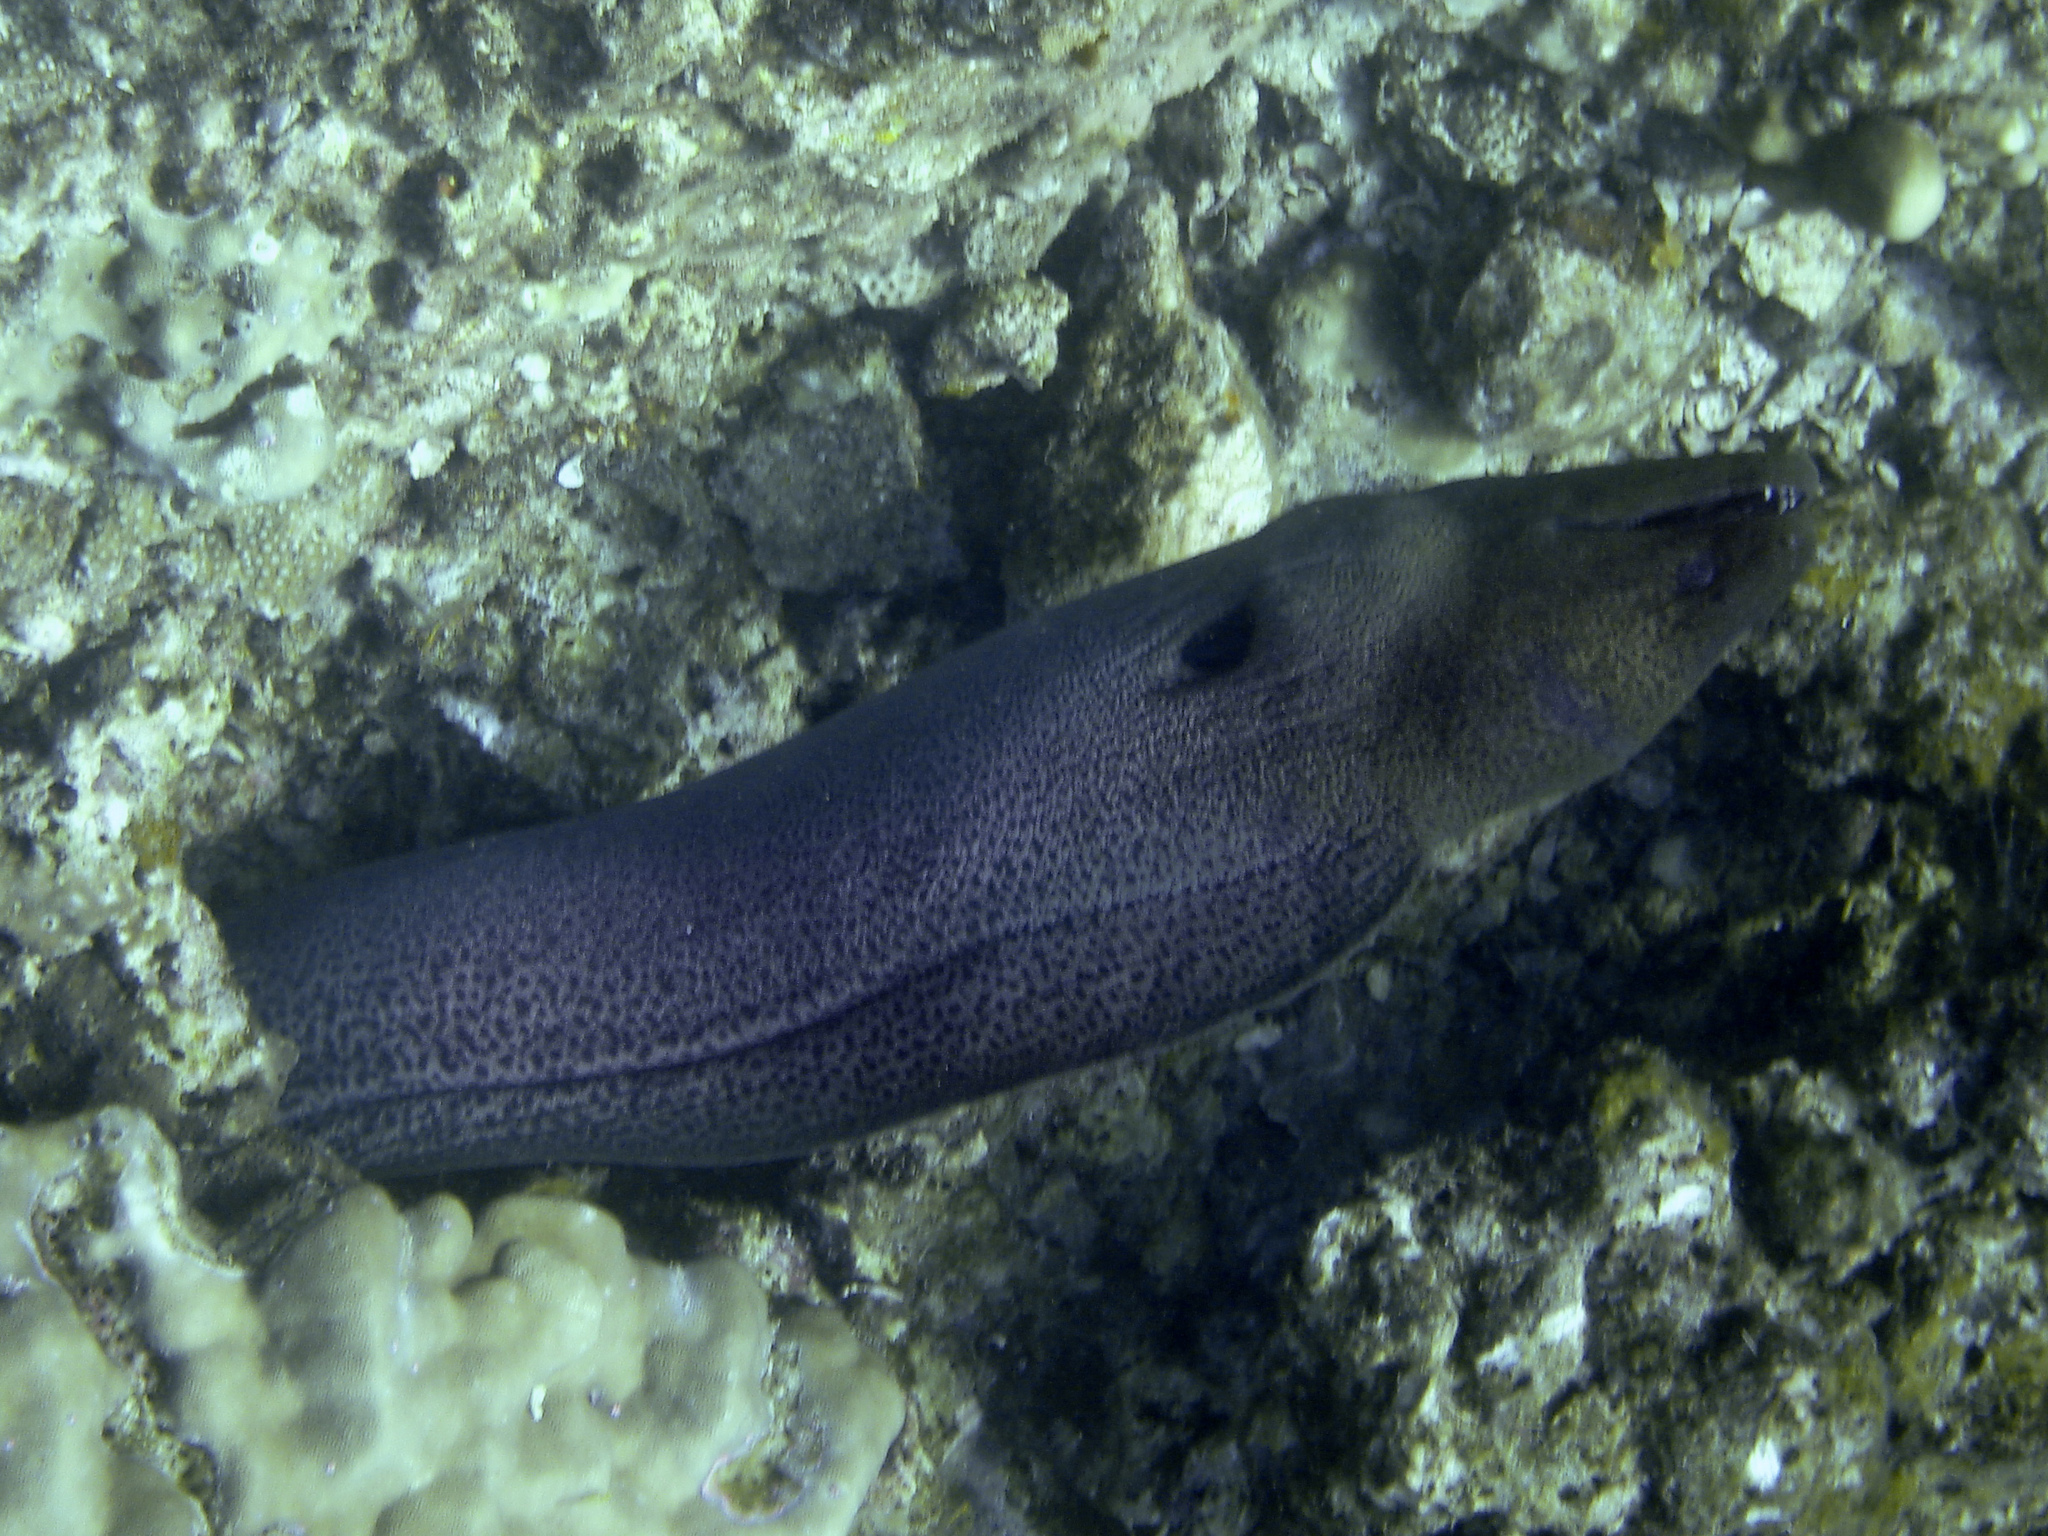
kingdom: Animalia
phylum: Chordata
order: Anguilliformes
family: Muraenidae
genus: Gymnothorax
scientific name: Gymnothorax javanicus
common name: Giant moray
